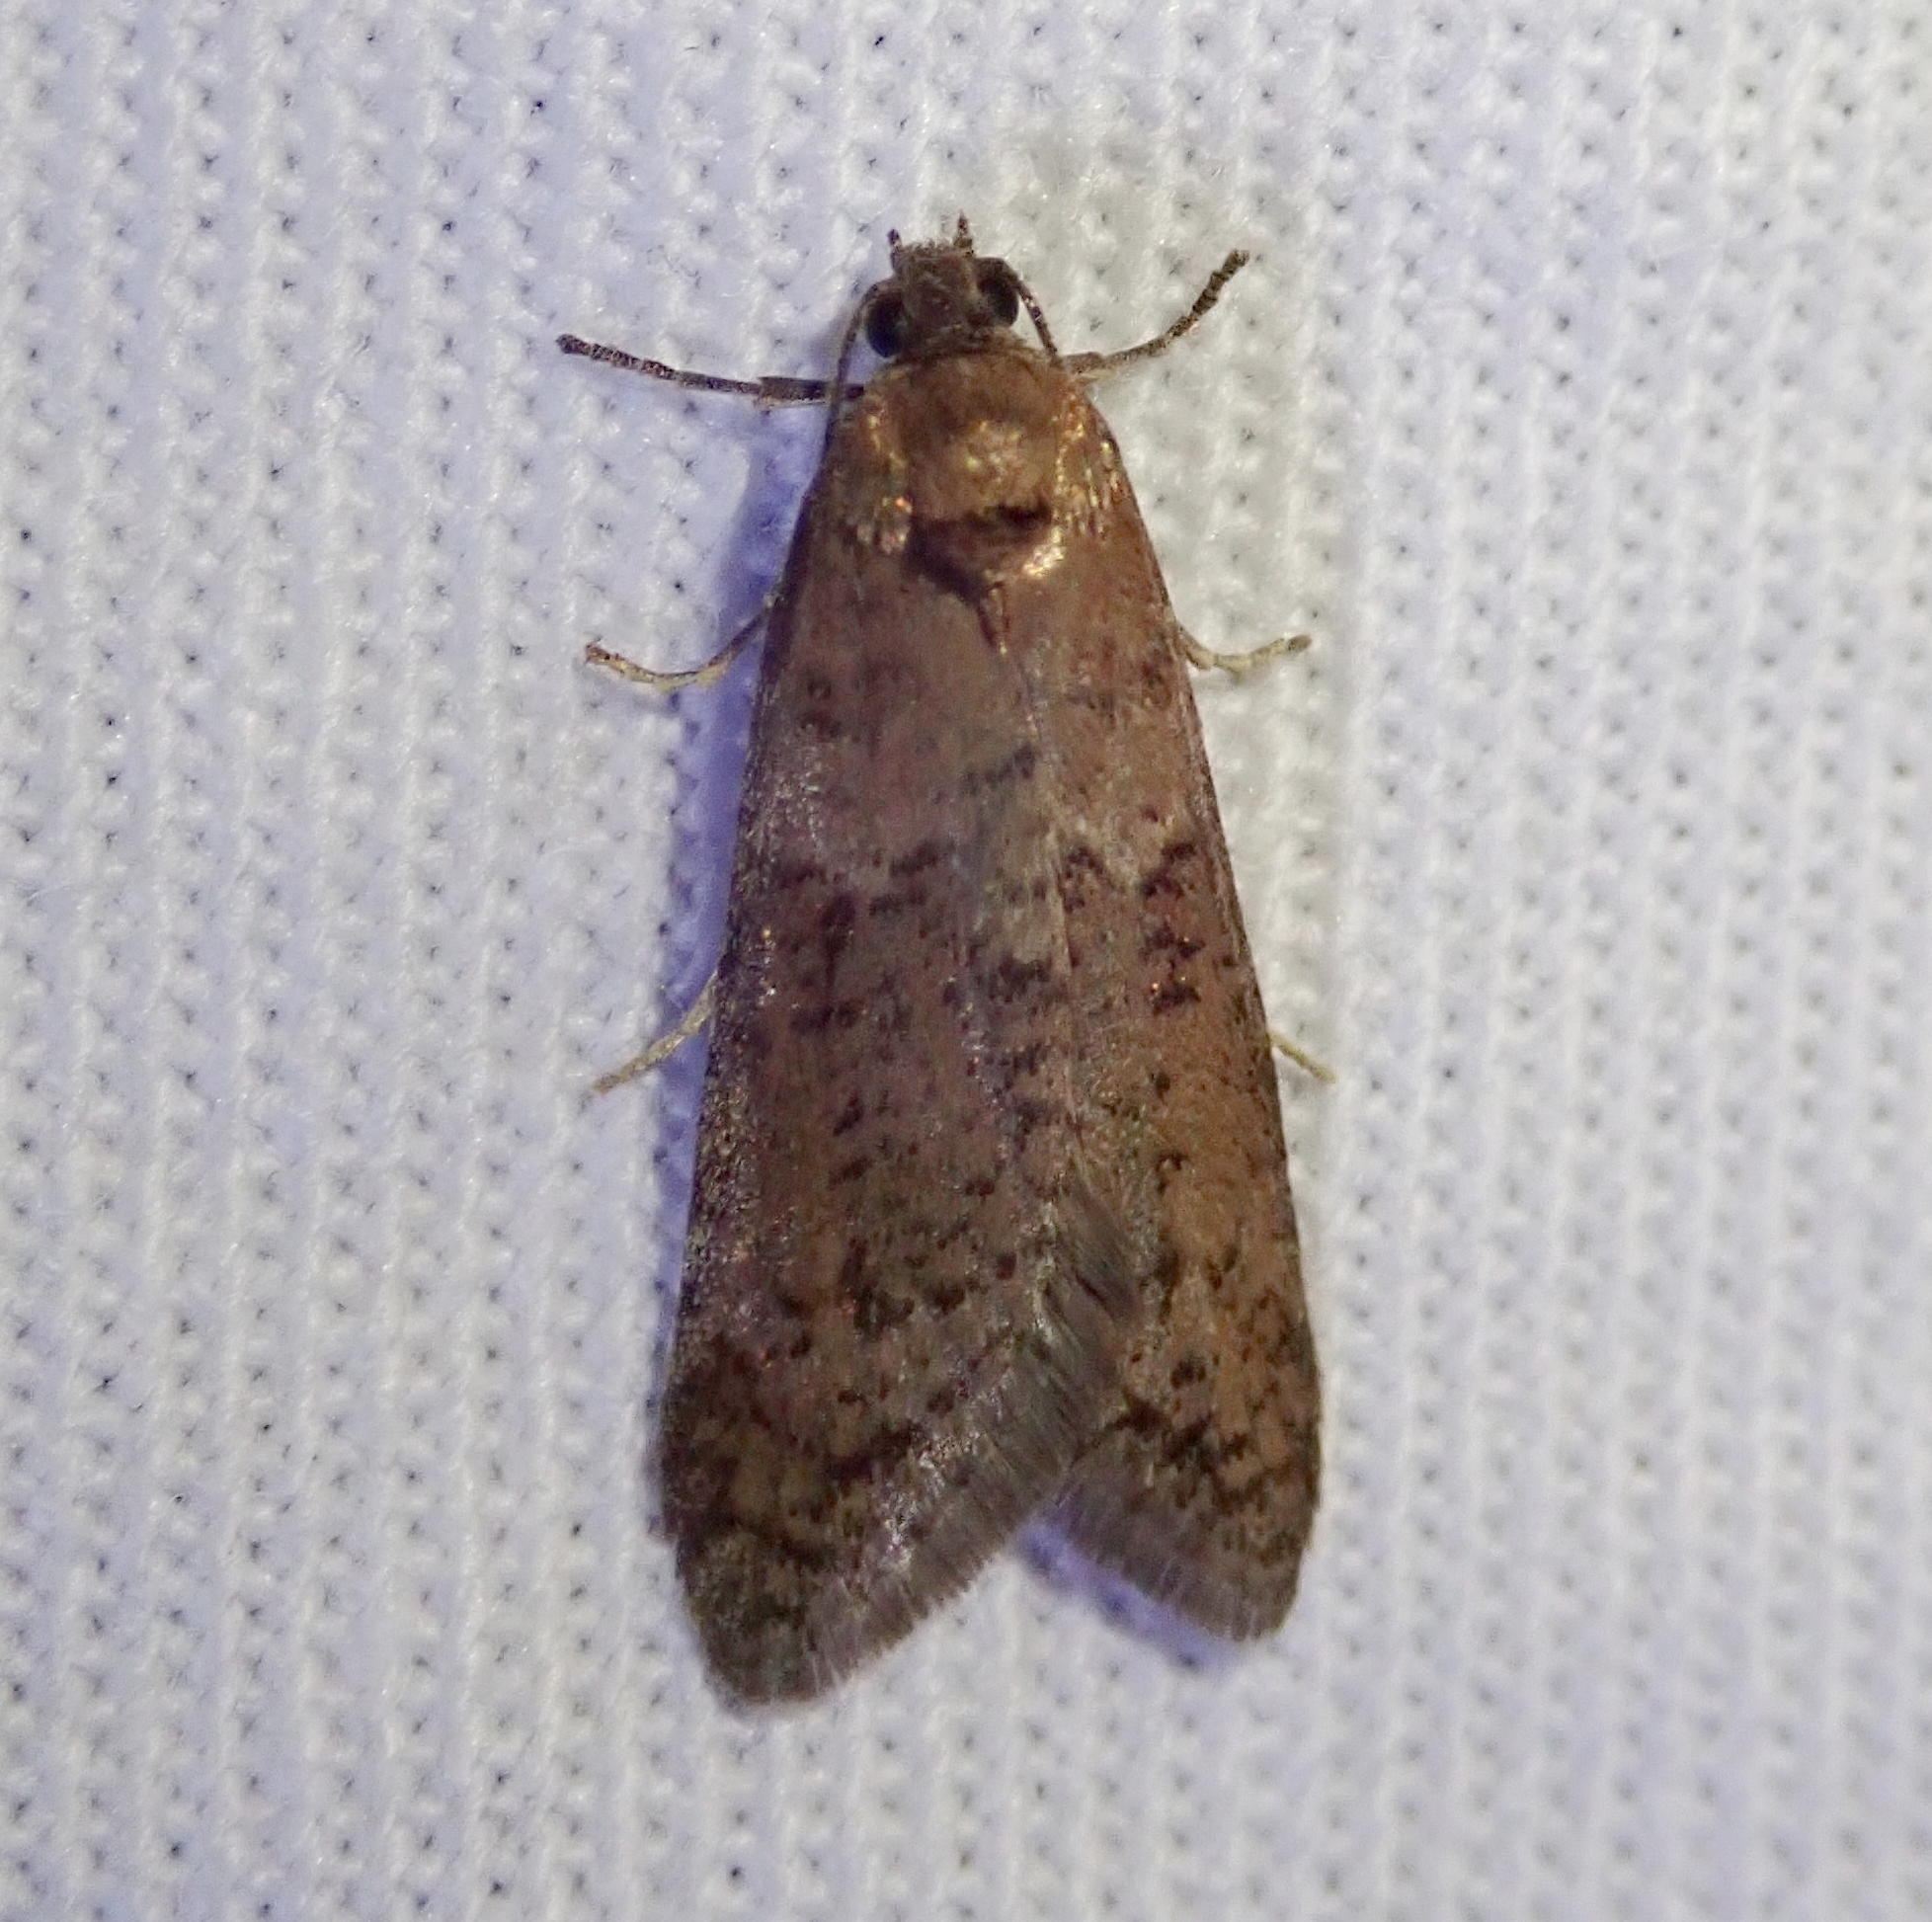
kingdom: Animalia
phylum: Arthropoda
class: Insecta
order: Lepidoptera
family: Tortricidae
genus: Tortricodes
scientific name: Tortricodes alternella
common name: Winter shade
